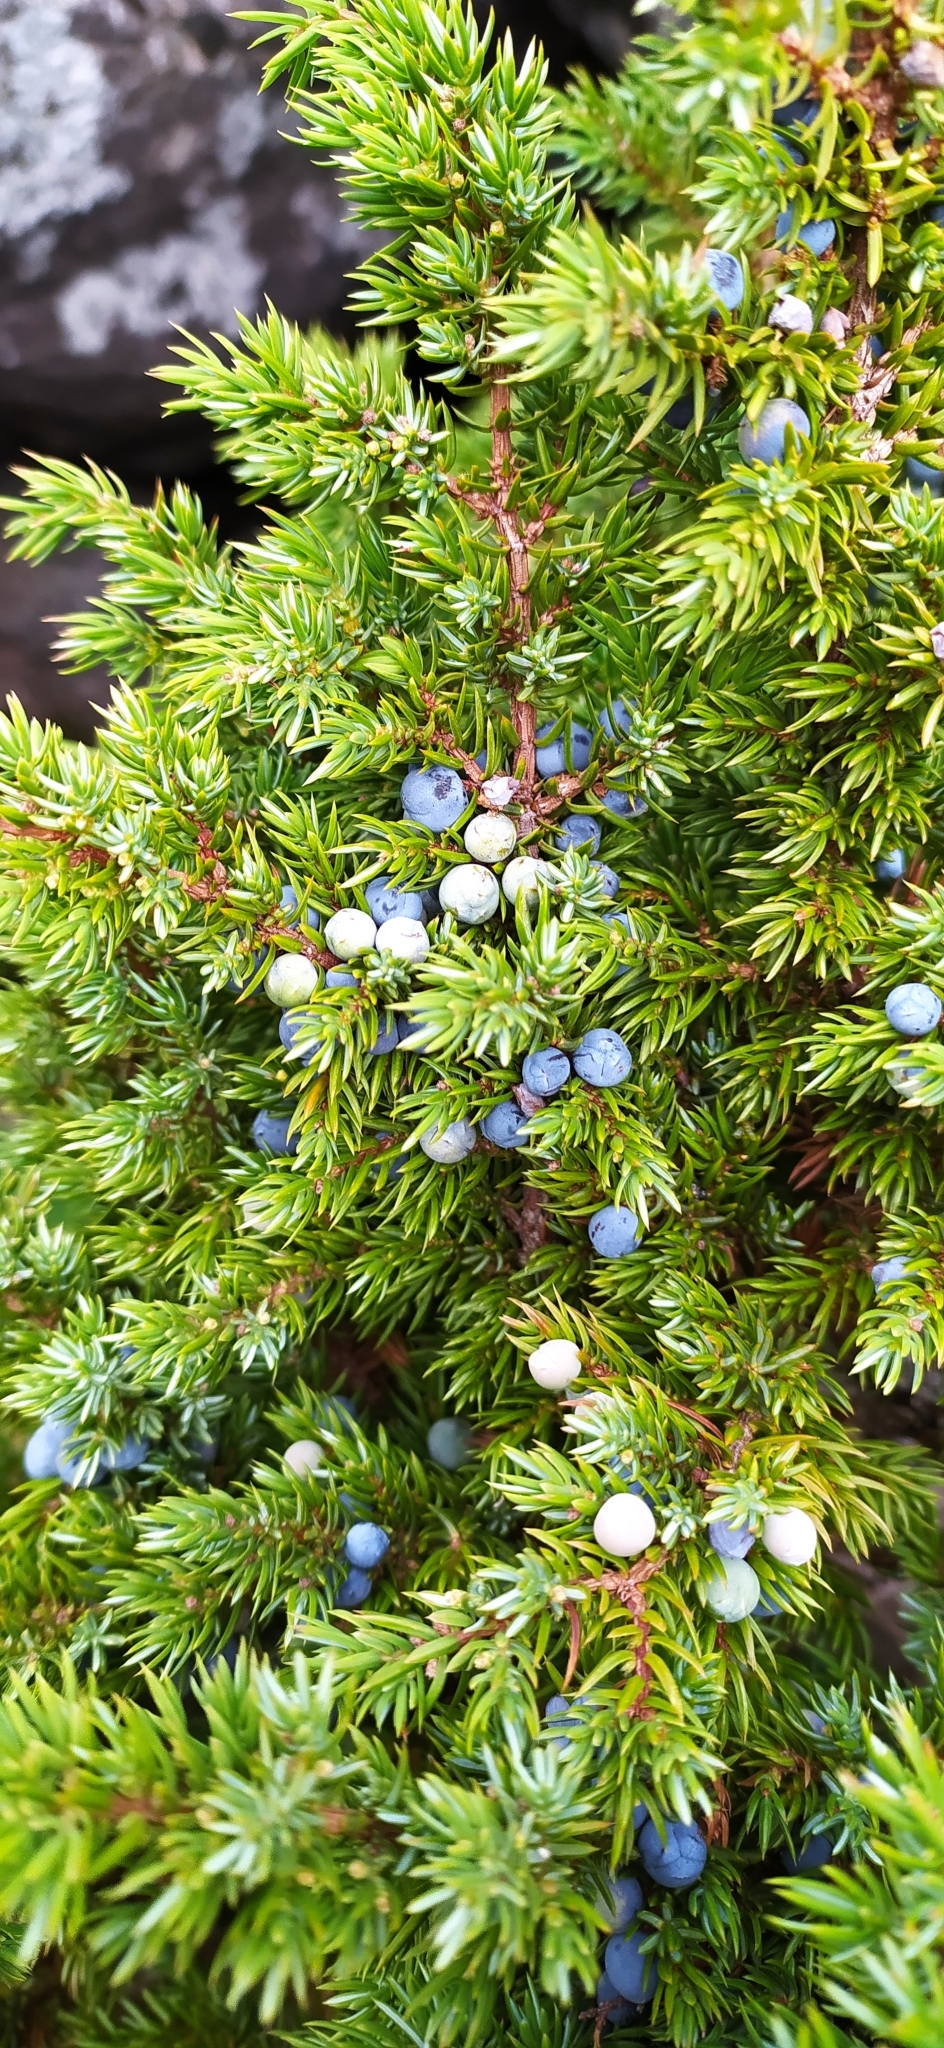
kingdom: Plantae
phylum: Tracheophyta
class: Pinopsida
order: Pinales
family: Cupressaceae
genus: Juniperus
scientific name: Juniperus communis
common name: Common juniper
